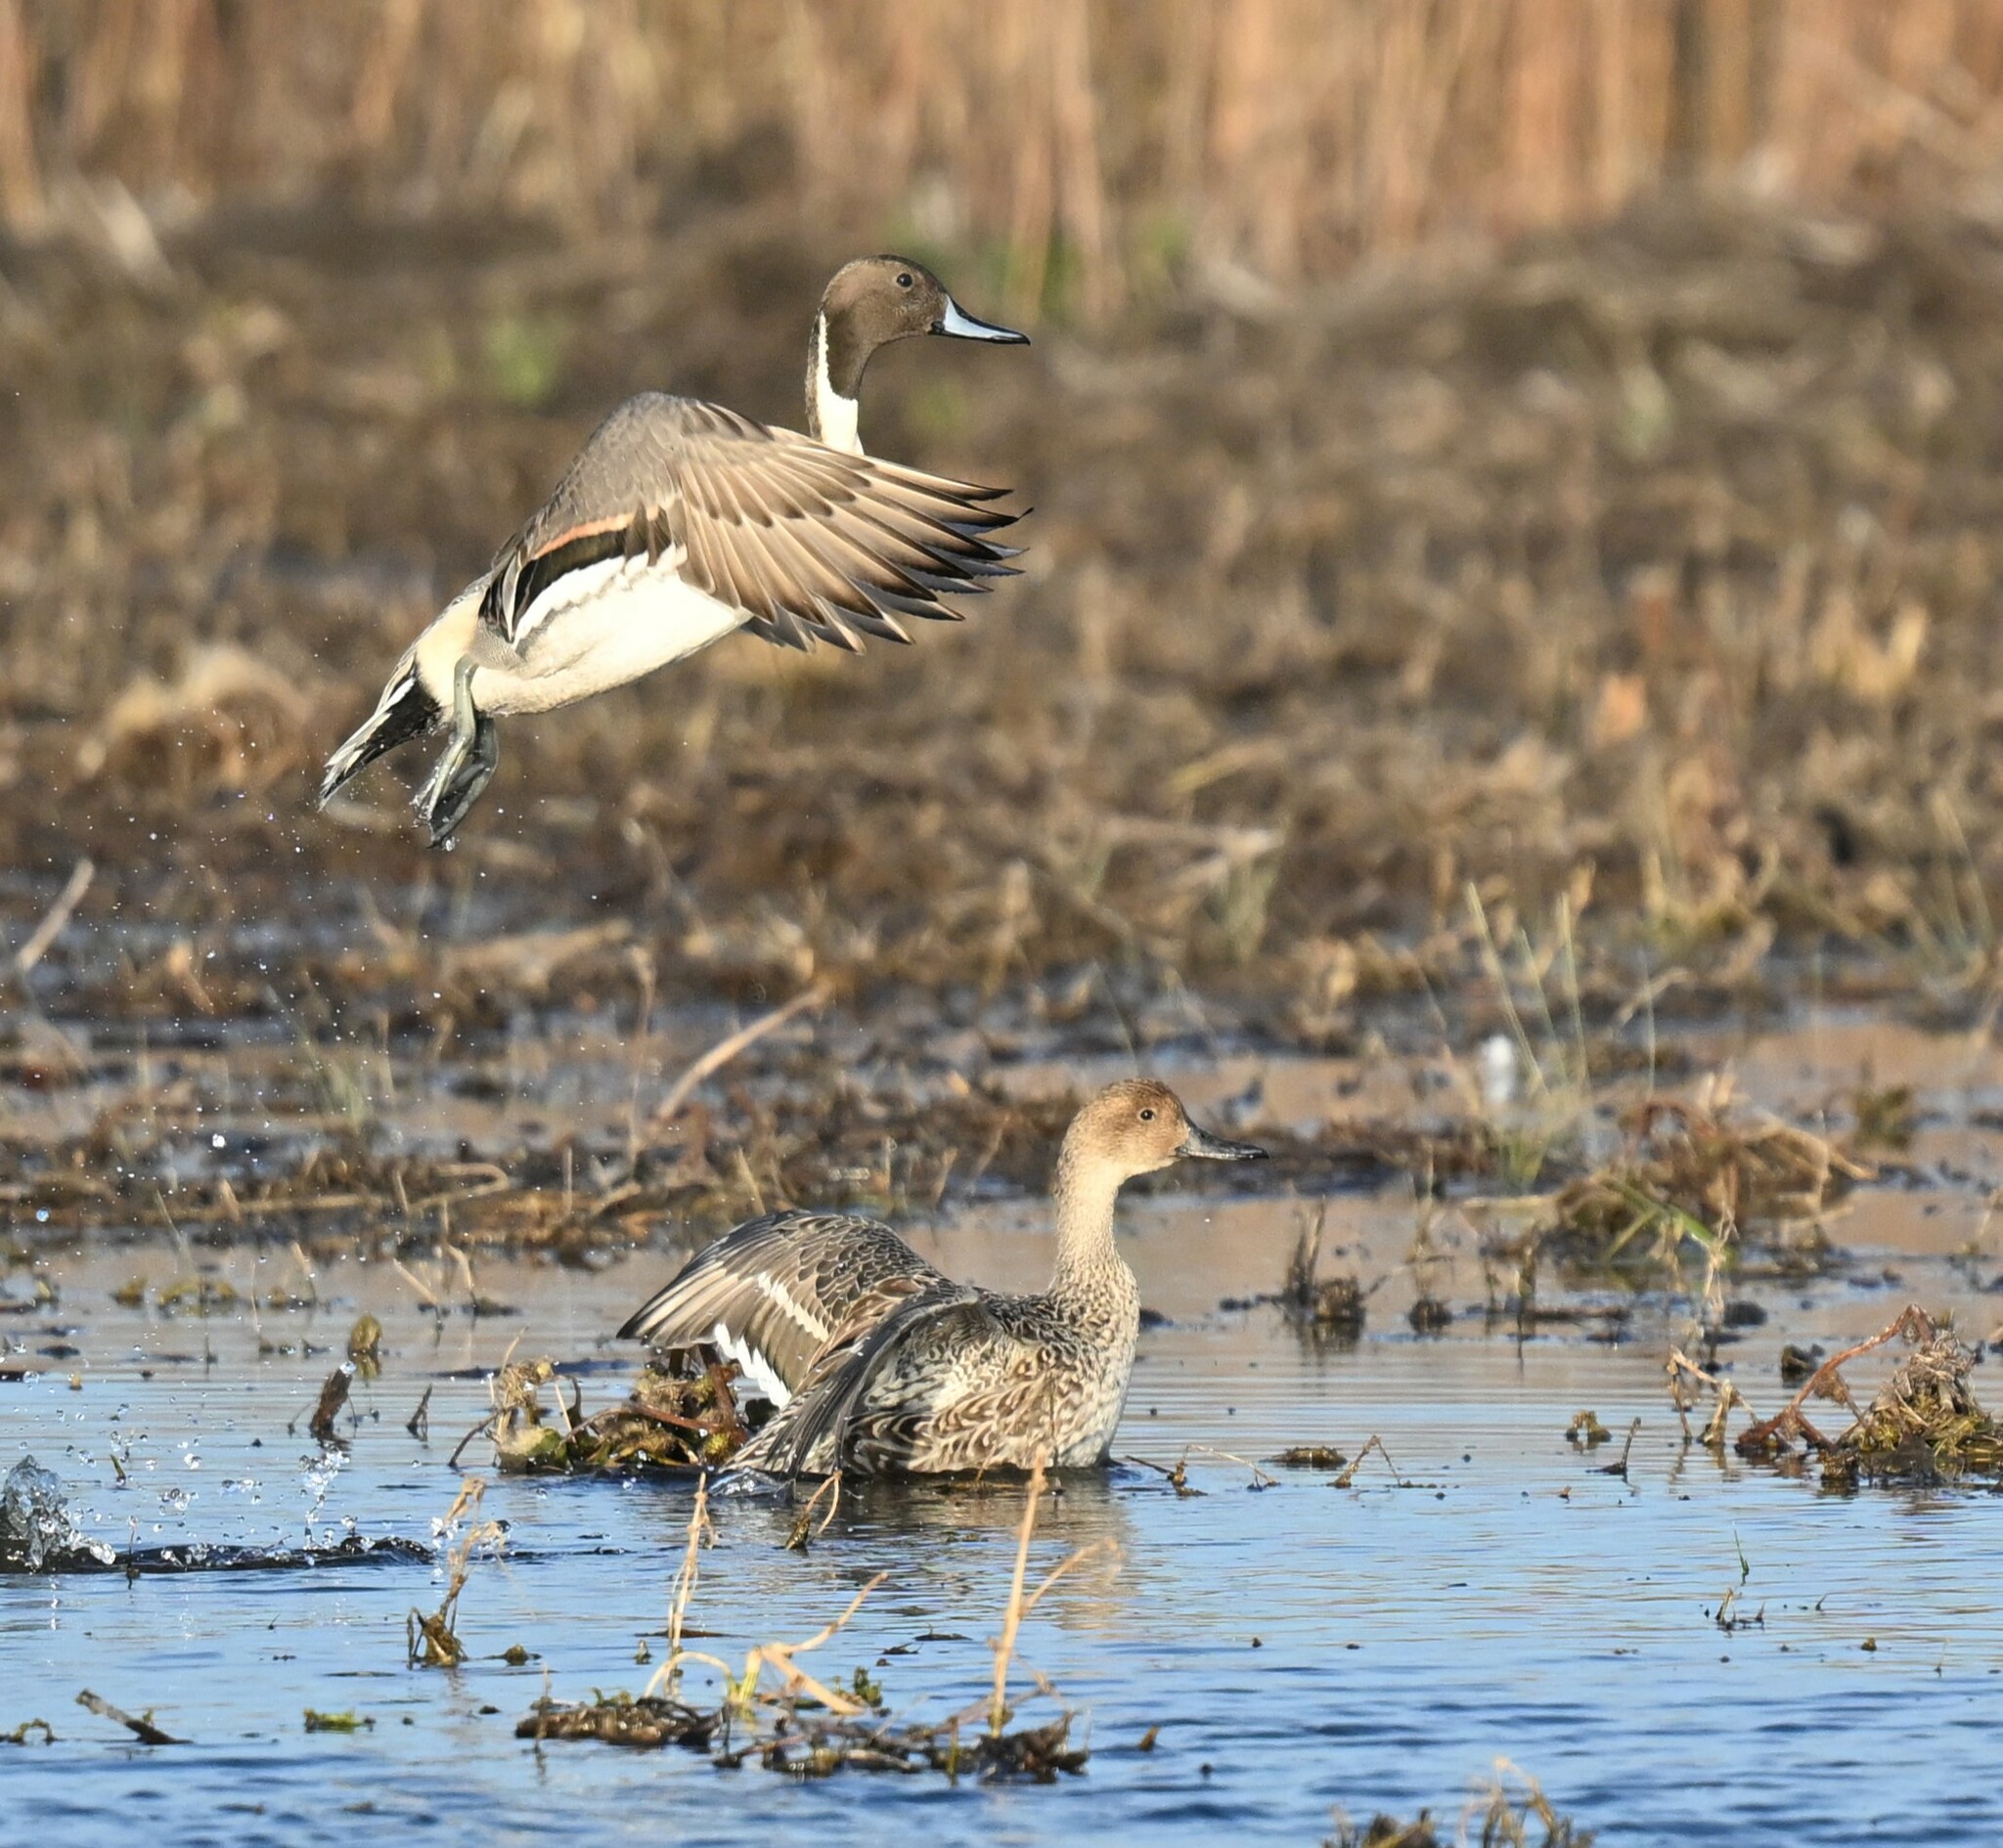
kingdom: Animalia
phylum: Chordata
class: Aves
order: Anseriformes
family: Anatidae
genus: Anas
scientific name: Anas acuta
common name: Northern pintail
